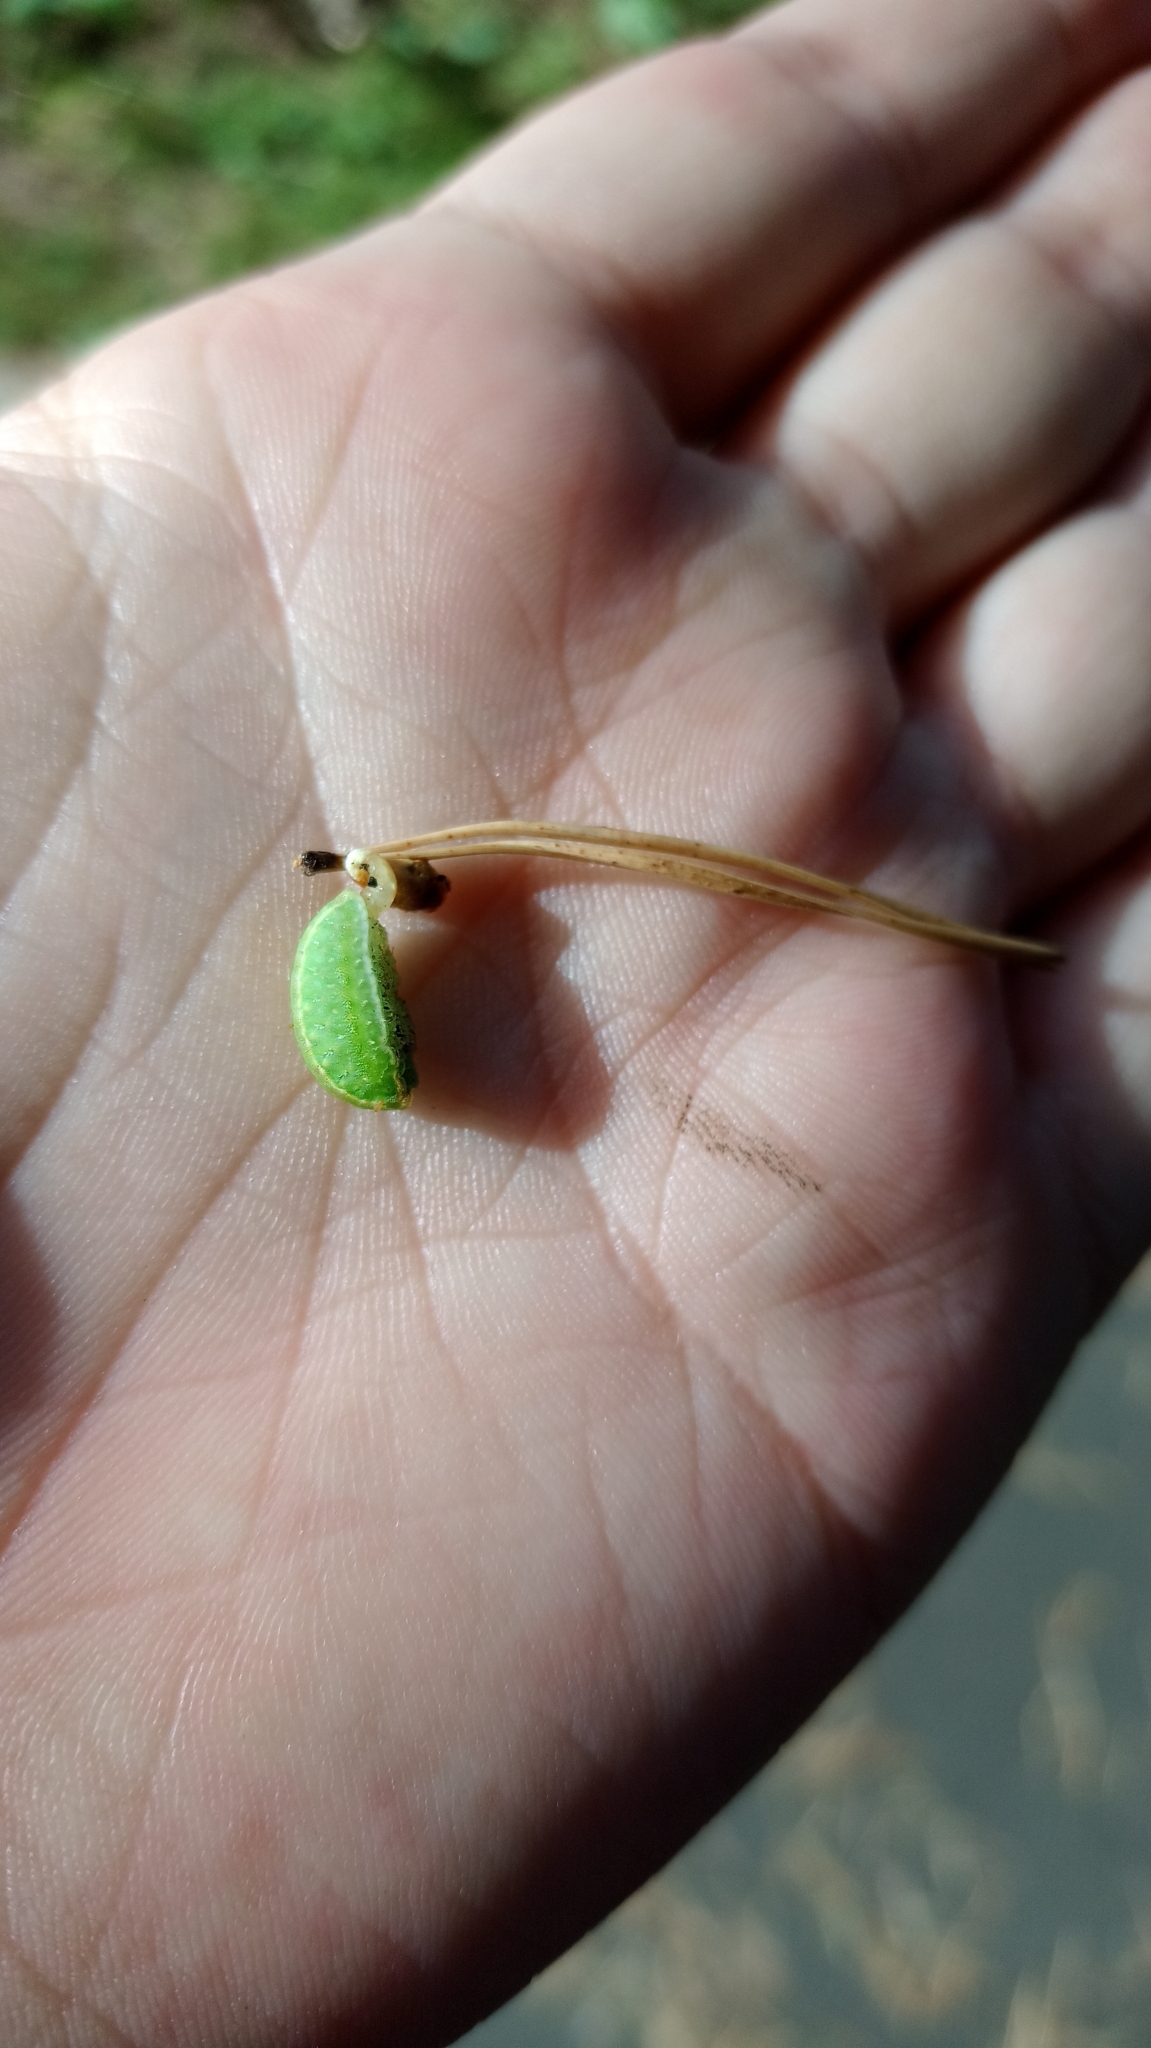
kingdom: Animalia
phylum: Arthropoda
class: Insecta
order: Lepidoptera
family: Limacodidae
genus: Apoda
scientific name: Apoda limacodes
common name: Festoon
